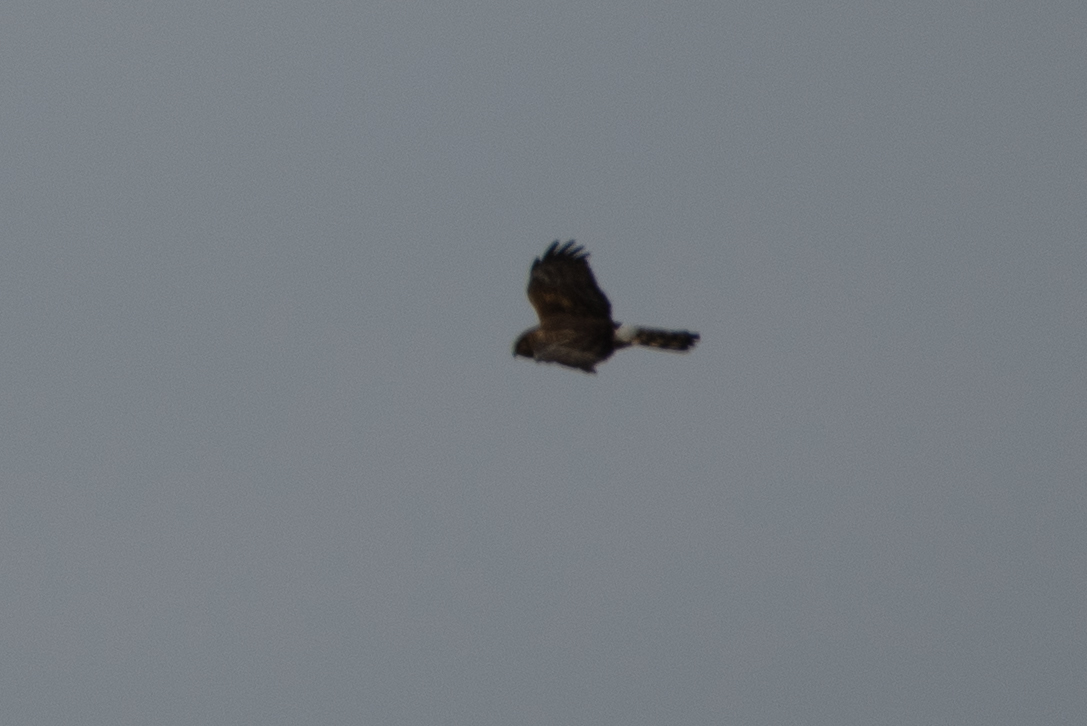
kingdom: Animalia
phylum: Chordata
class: Aves
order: Accipitriformes
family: Accipitridae
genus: Circus
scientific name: Circus cyaneus
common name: Hen harrier
